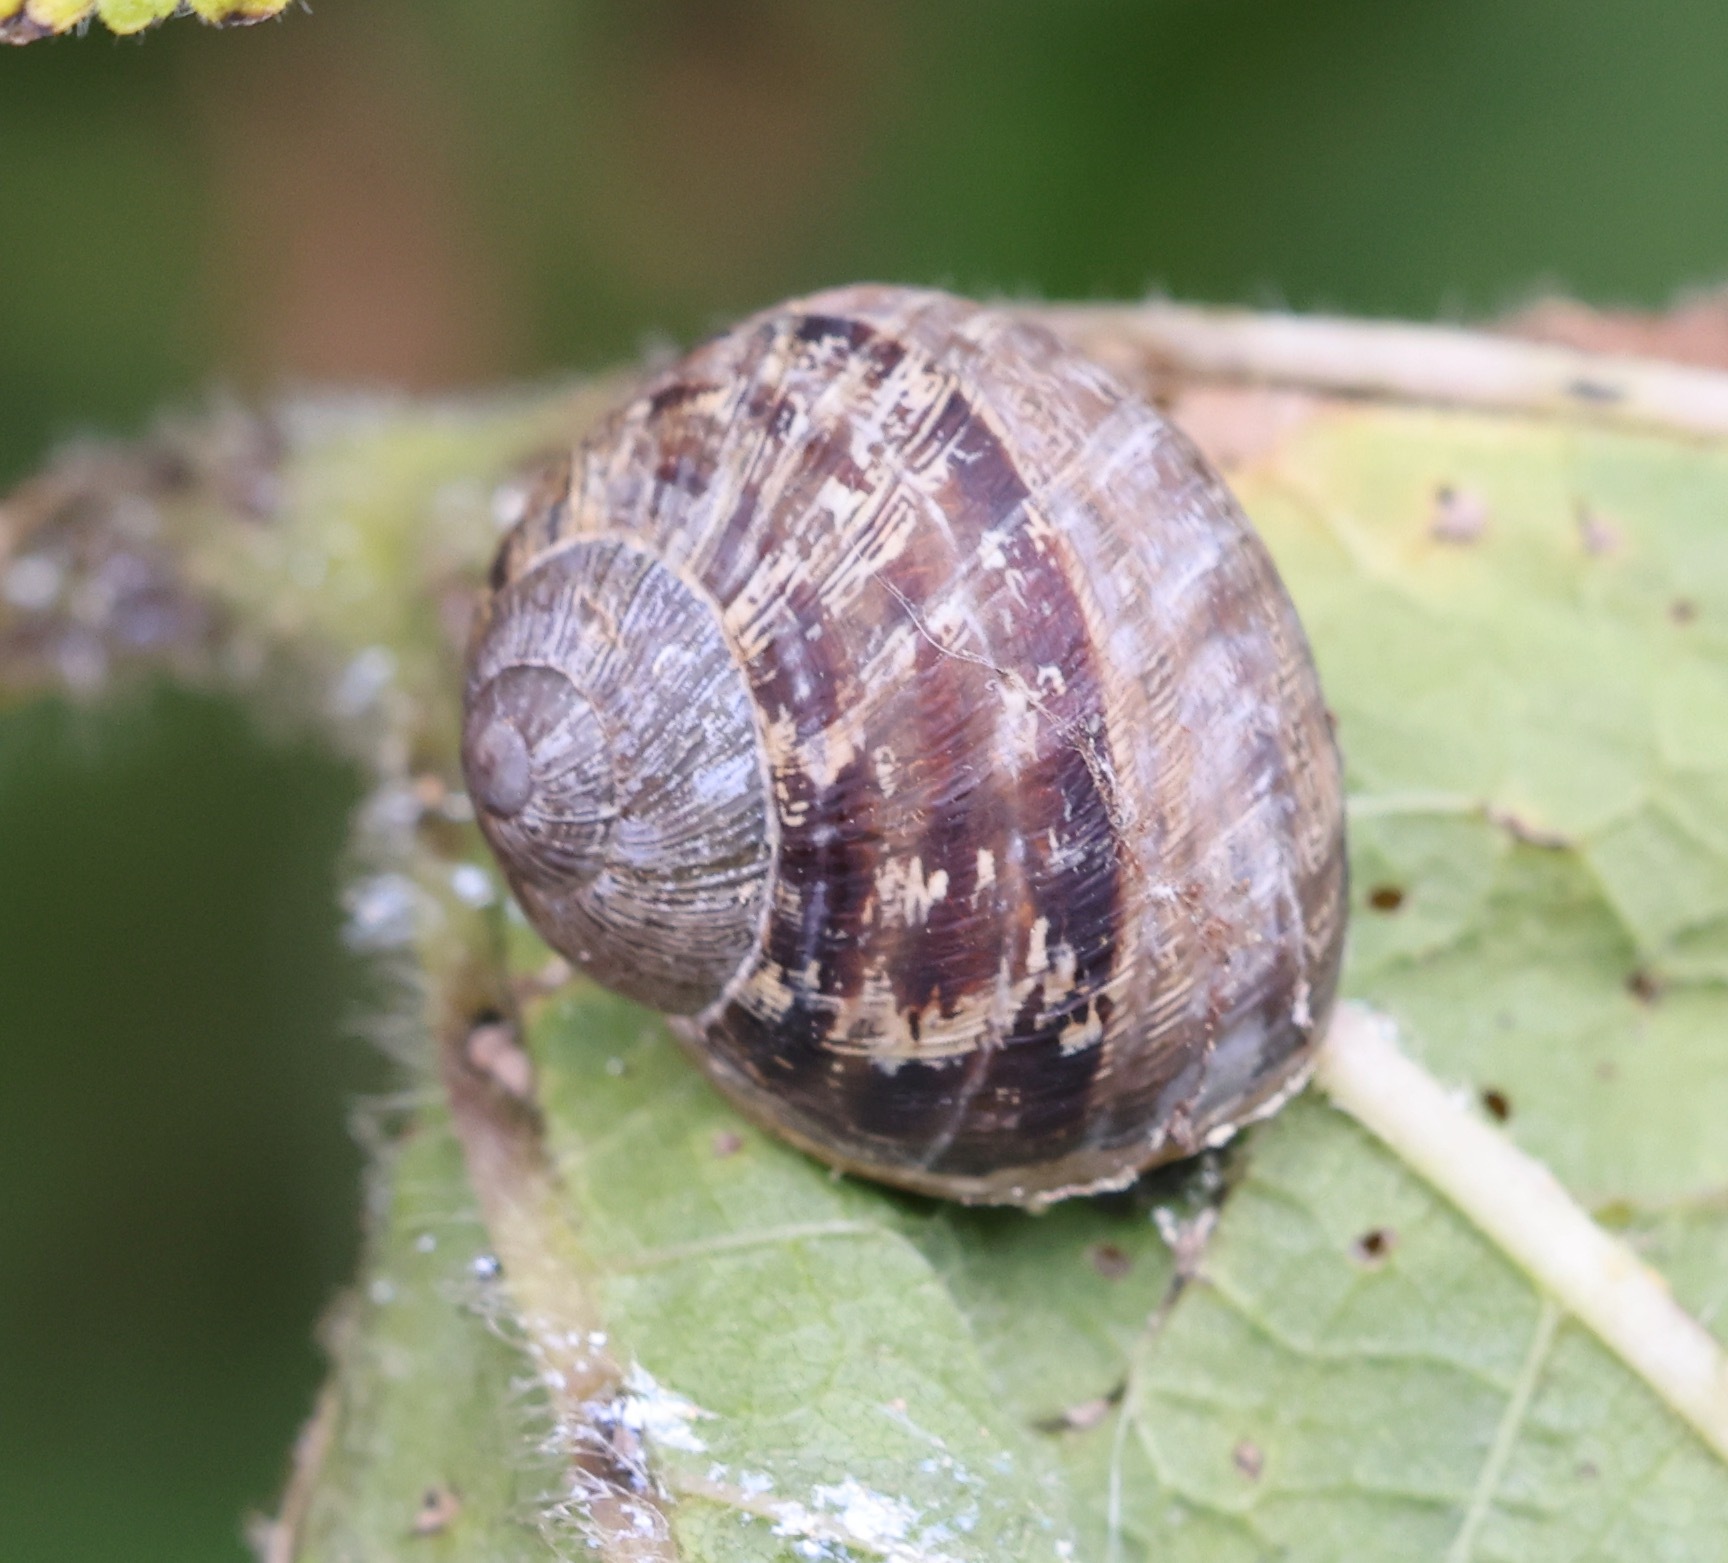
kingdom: Animalia
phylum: Mollusca
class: Gastropoda
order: Stylommatophora
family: Helicidae
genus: Cornu
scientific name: Cornu aspersum
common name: Brown garden snail
